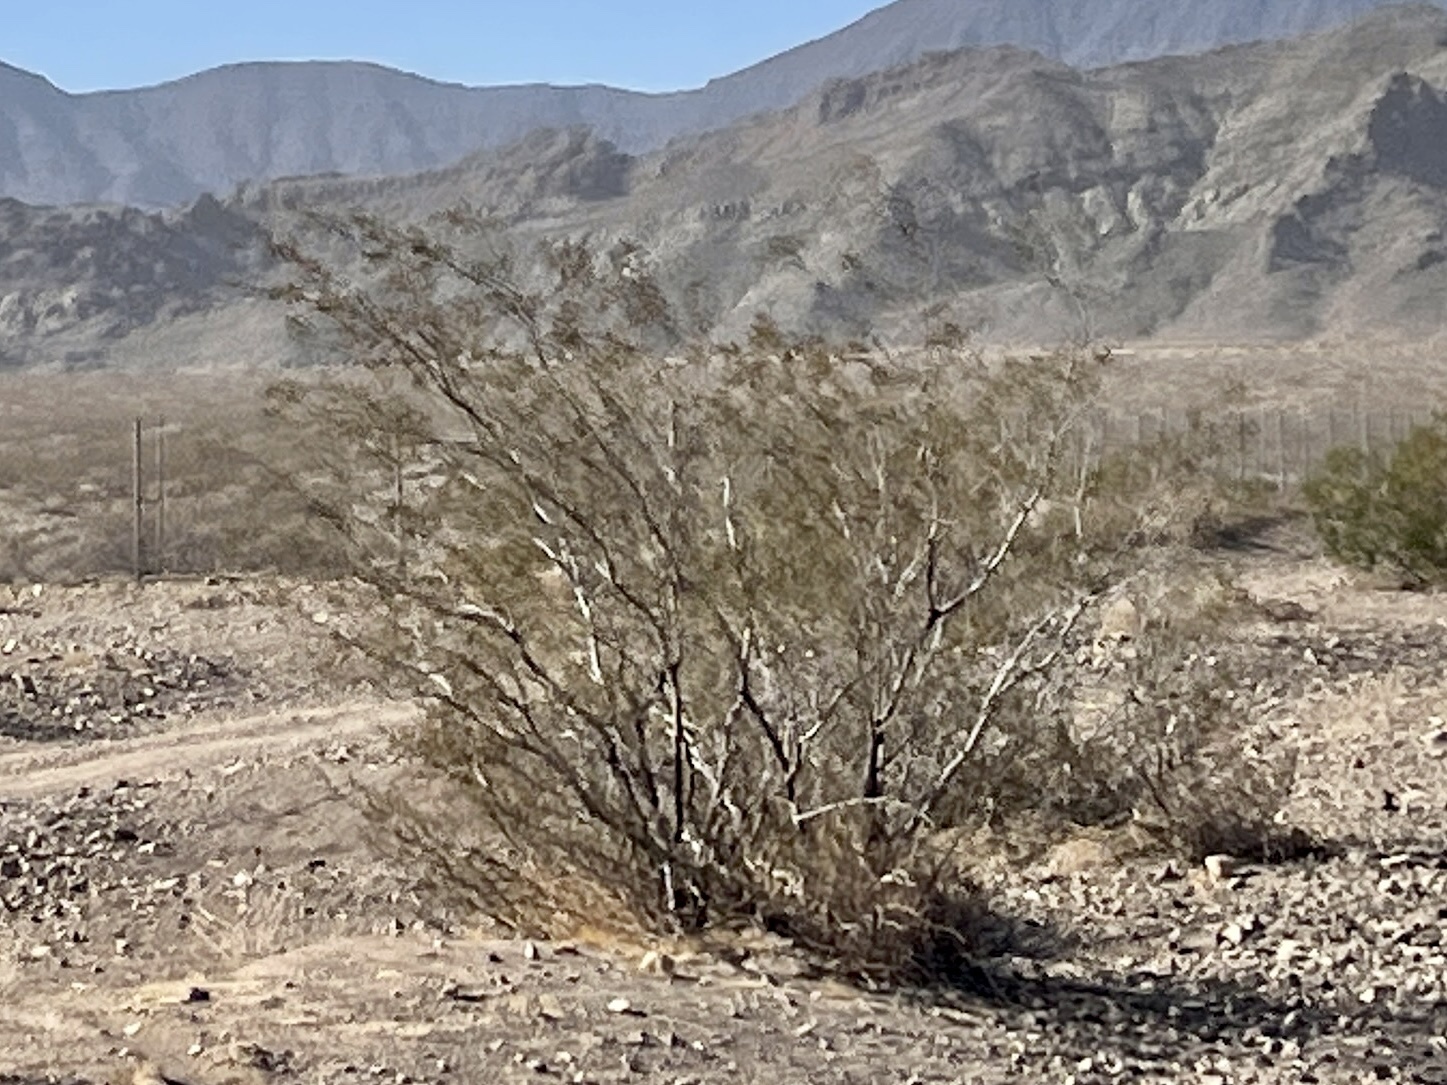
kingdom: Plantae
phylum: Tracheophyta
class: Magnoliopsida
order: Zygophyllales
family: Zygophyllaceae
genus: Larrea
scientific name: Larrea tridentata
